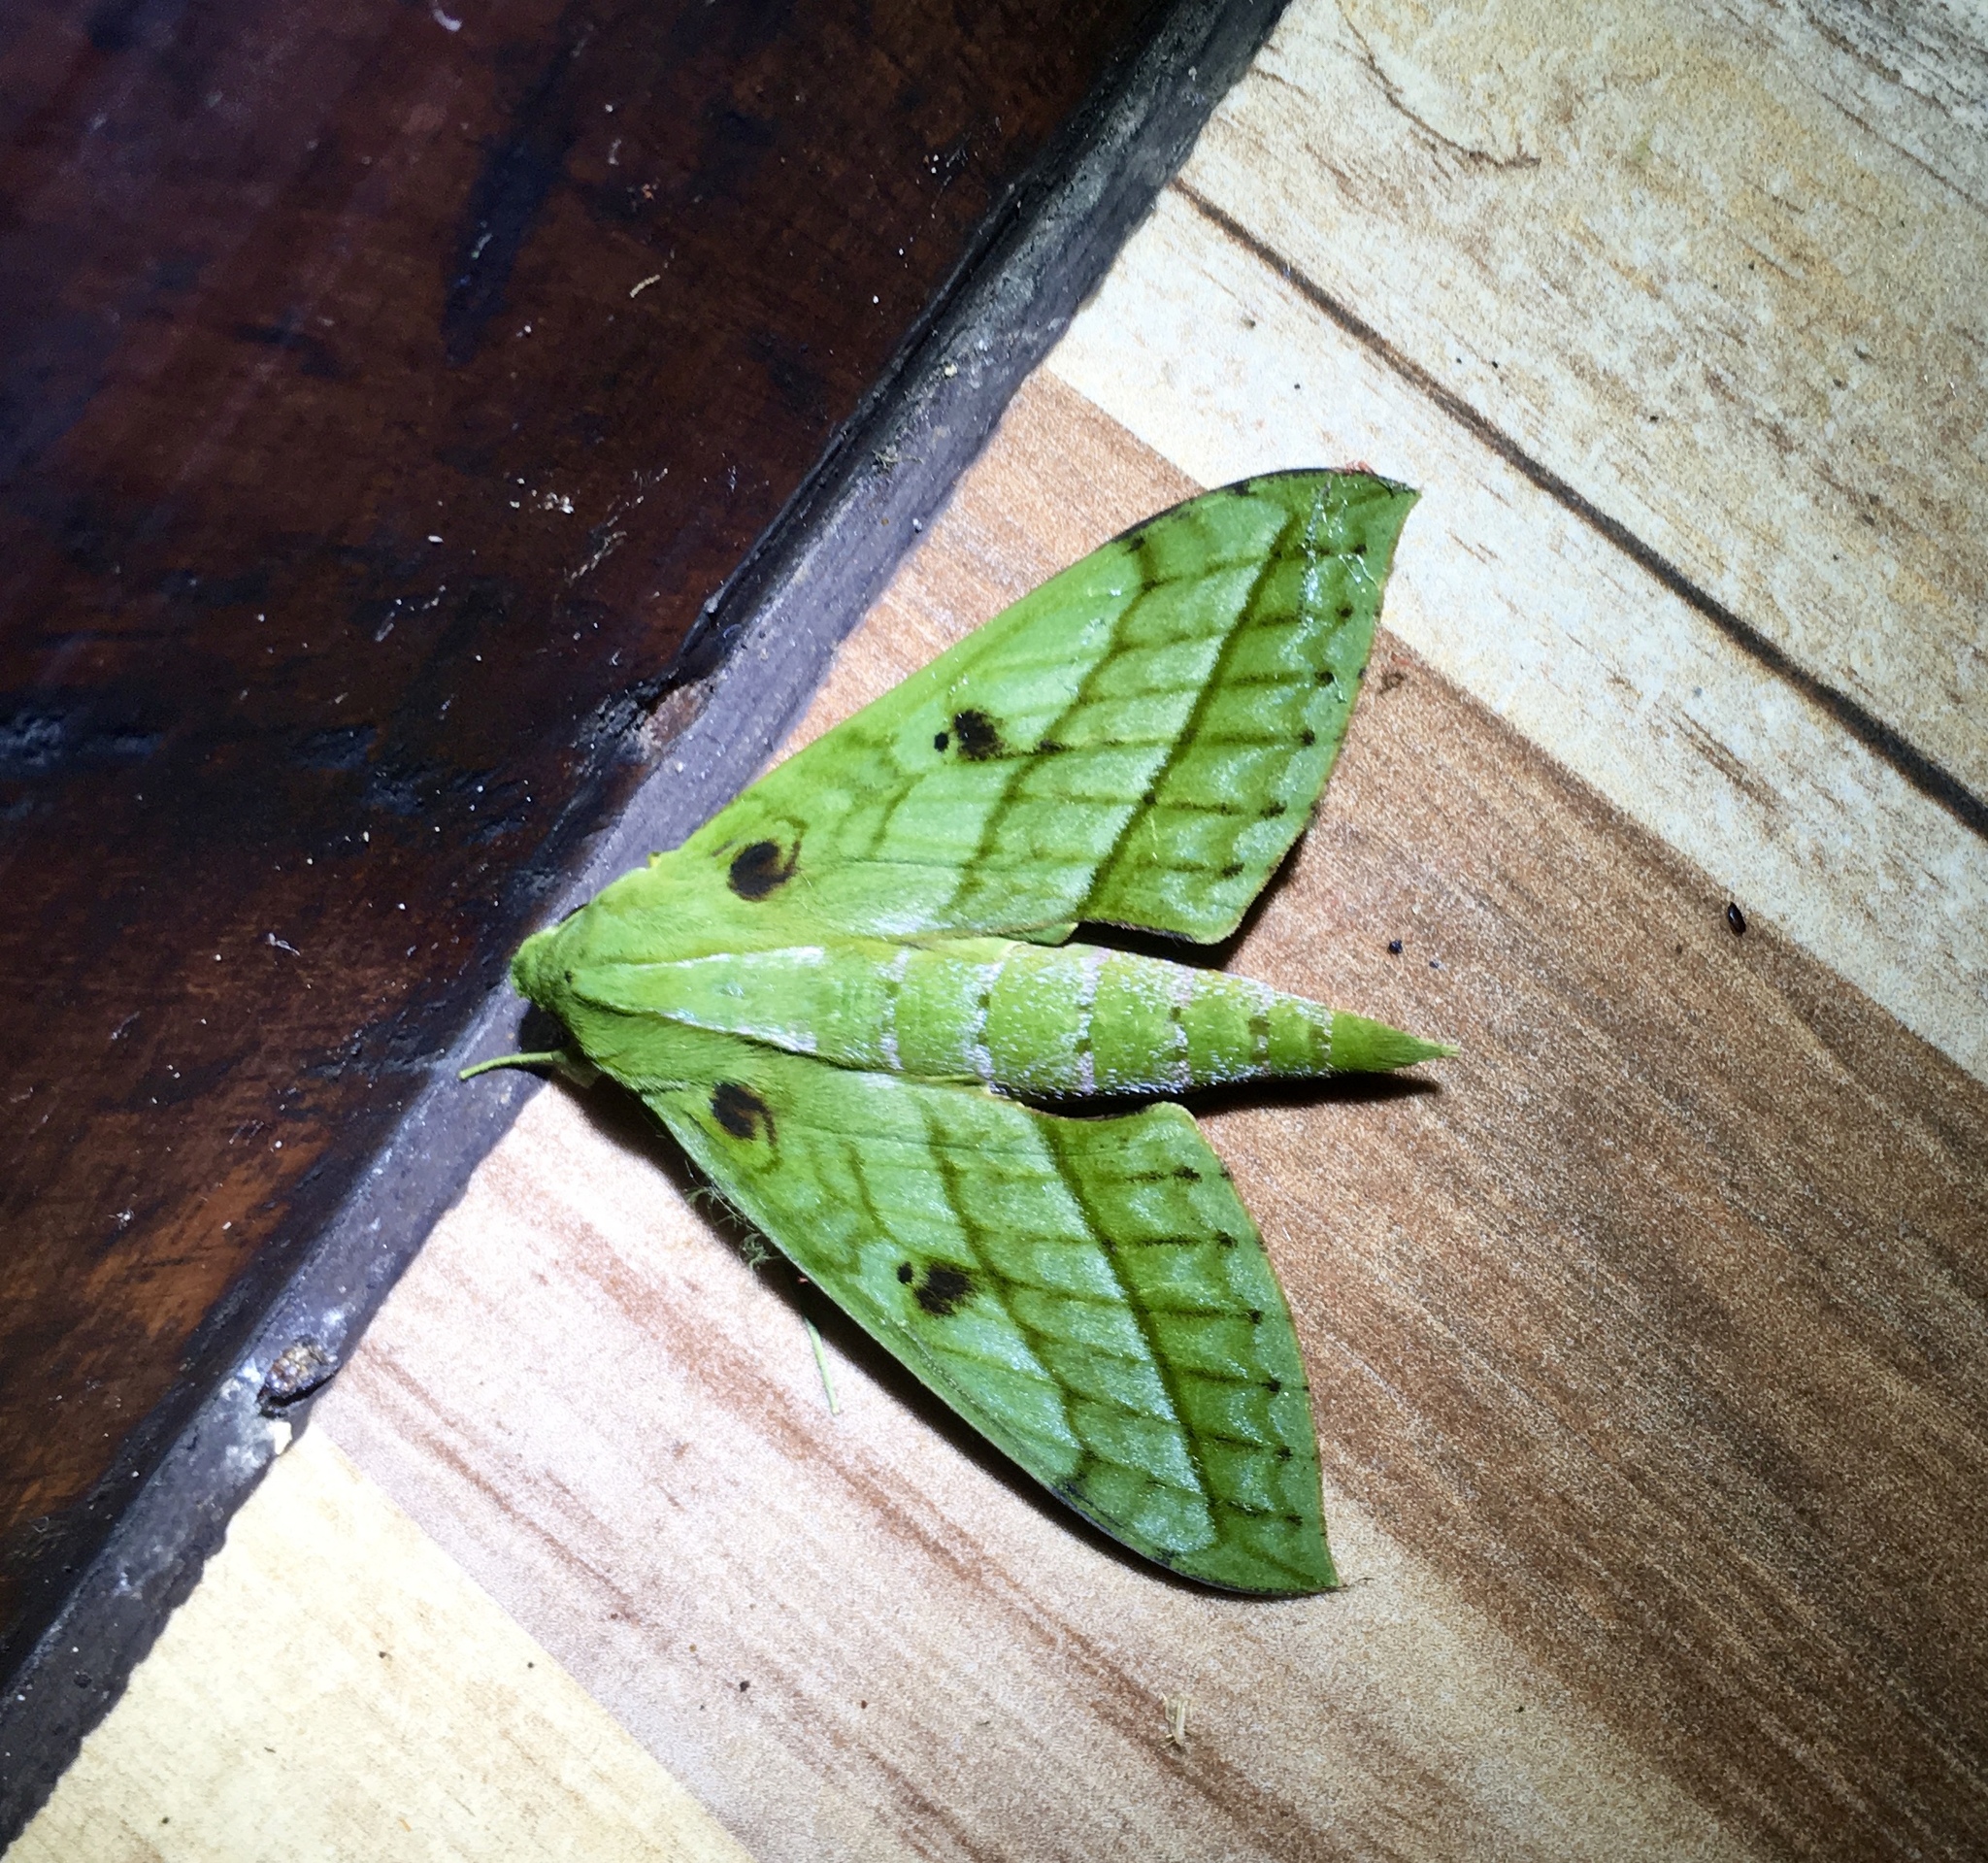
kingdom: Animalia
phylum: Arthropoda
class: Insecta
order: Lepidoptera
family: Sphingidae
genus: Xylophanes
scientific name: Xylophanes mirabilis
